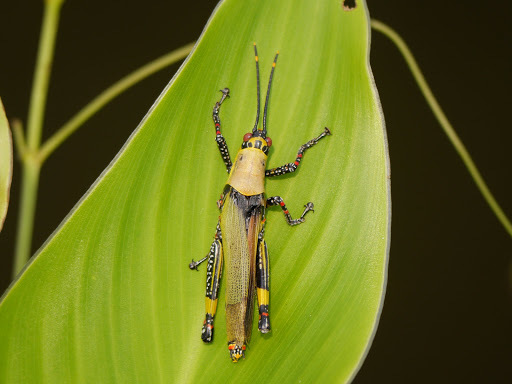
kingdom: Animalia
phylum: Arthropoda
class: Insecta
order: Orthoptera
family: Pyrgomorphidae
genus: Zonocerus
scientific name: Zonocerus variegatus
